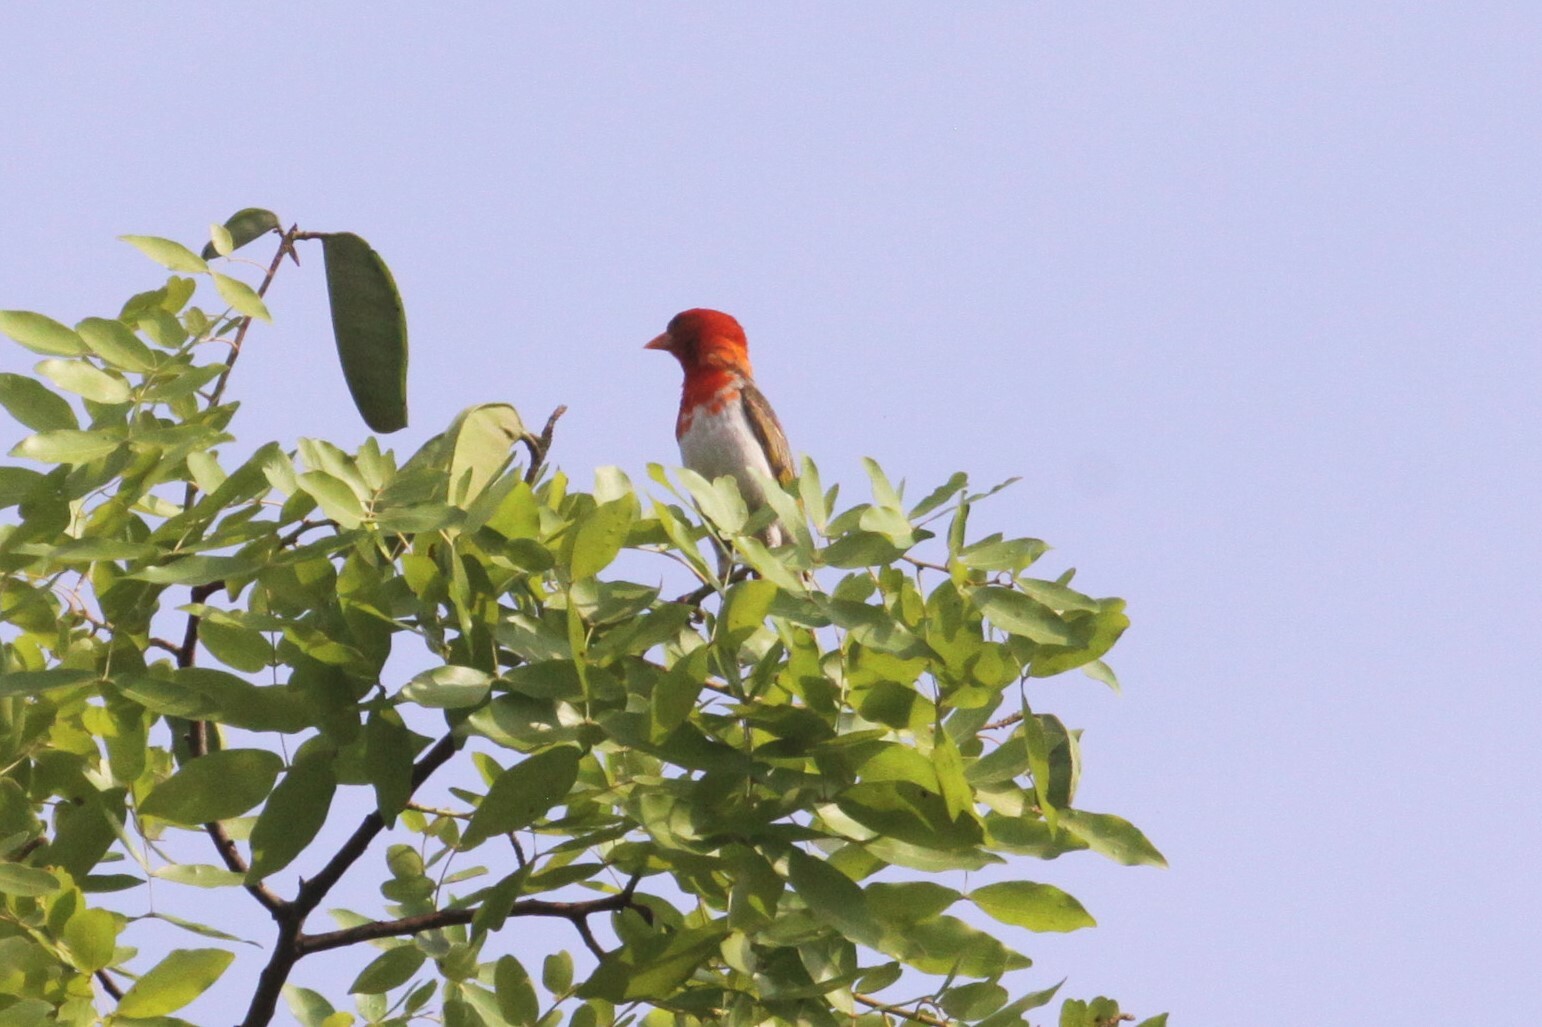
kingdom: Animalia
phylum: Chordata
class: Aves
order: Passeriformes
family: Ploceidae
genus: Anaplectes
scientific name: Anaplectes rubriceps
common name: Red-headed weaver
